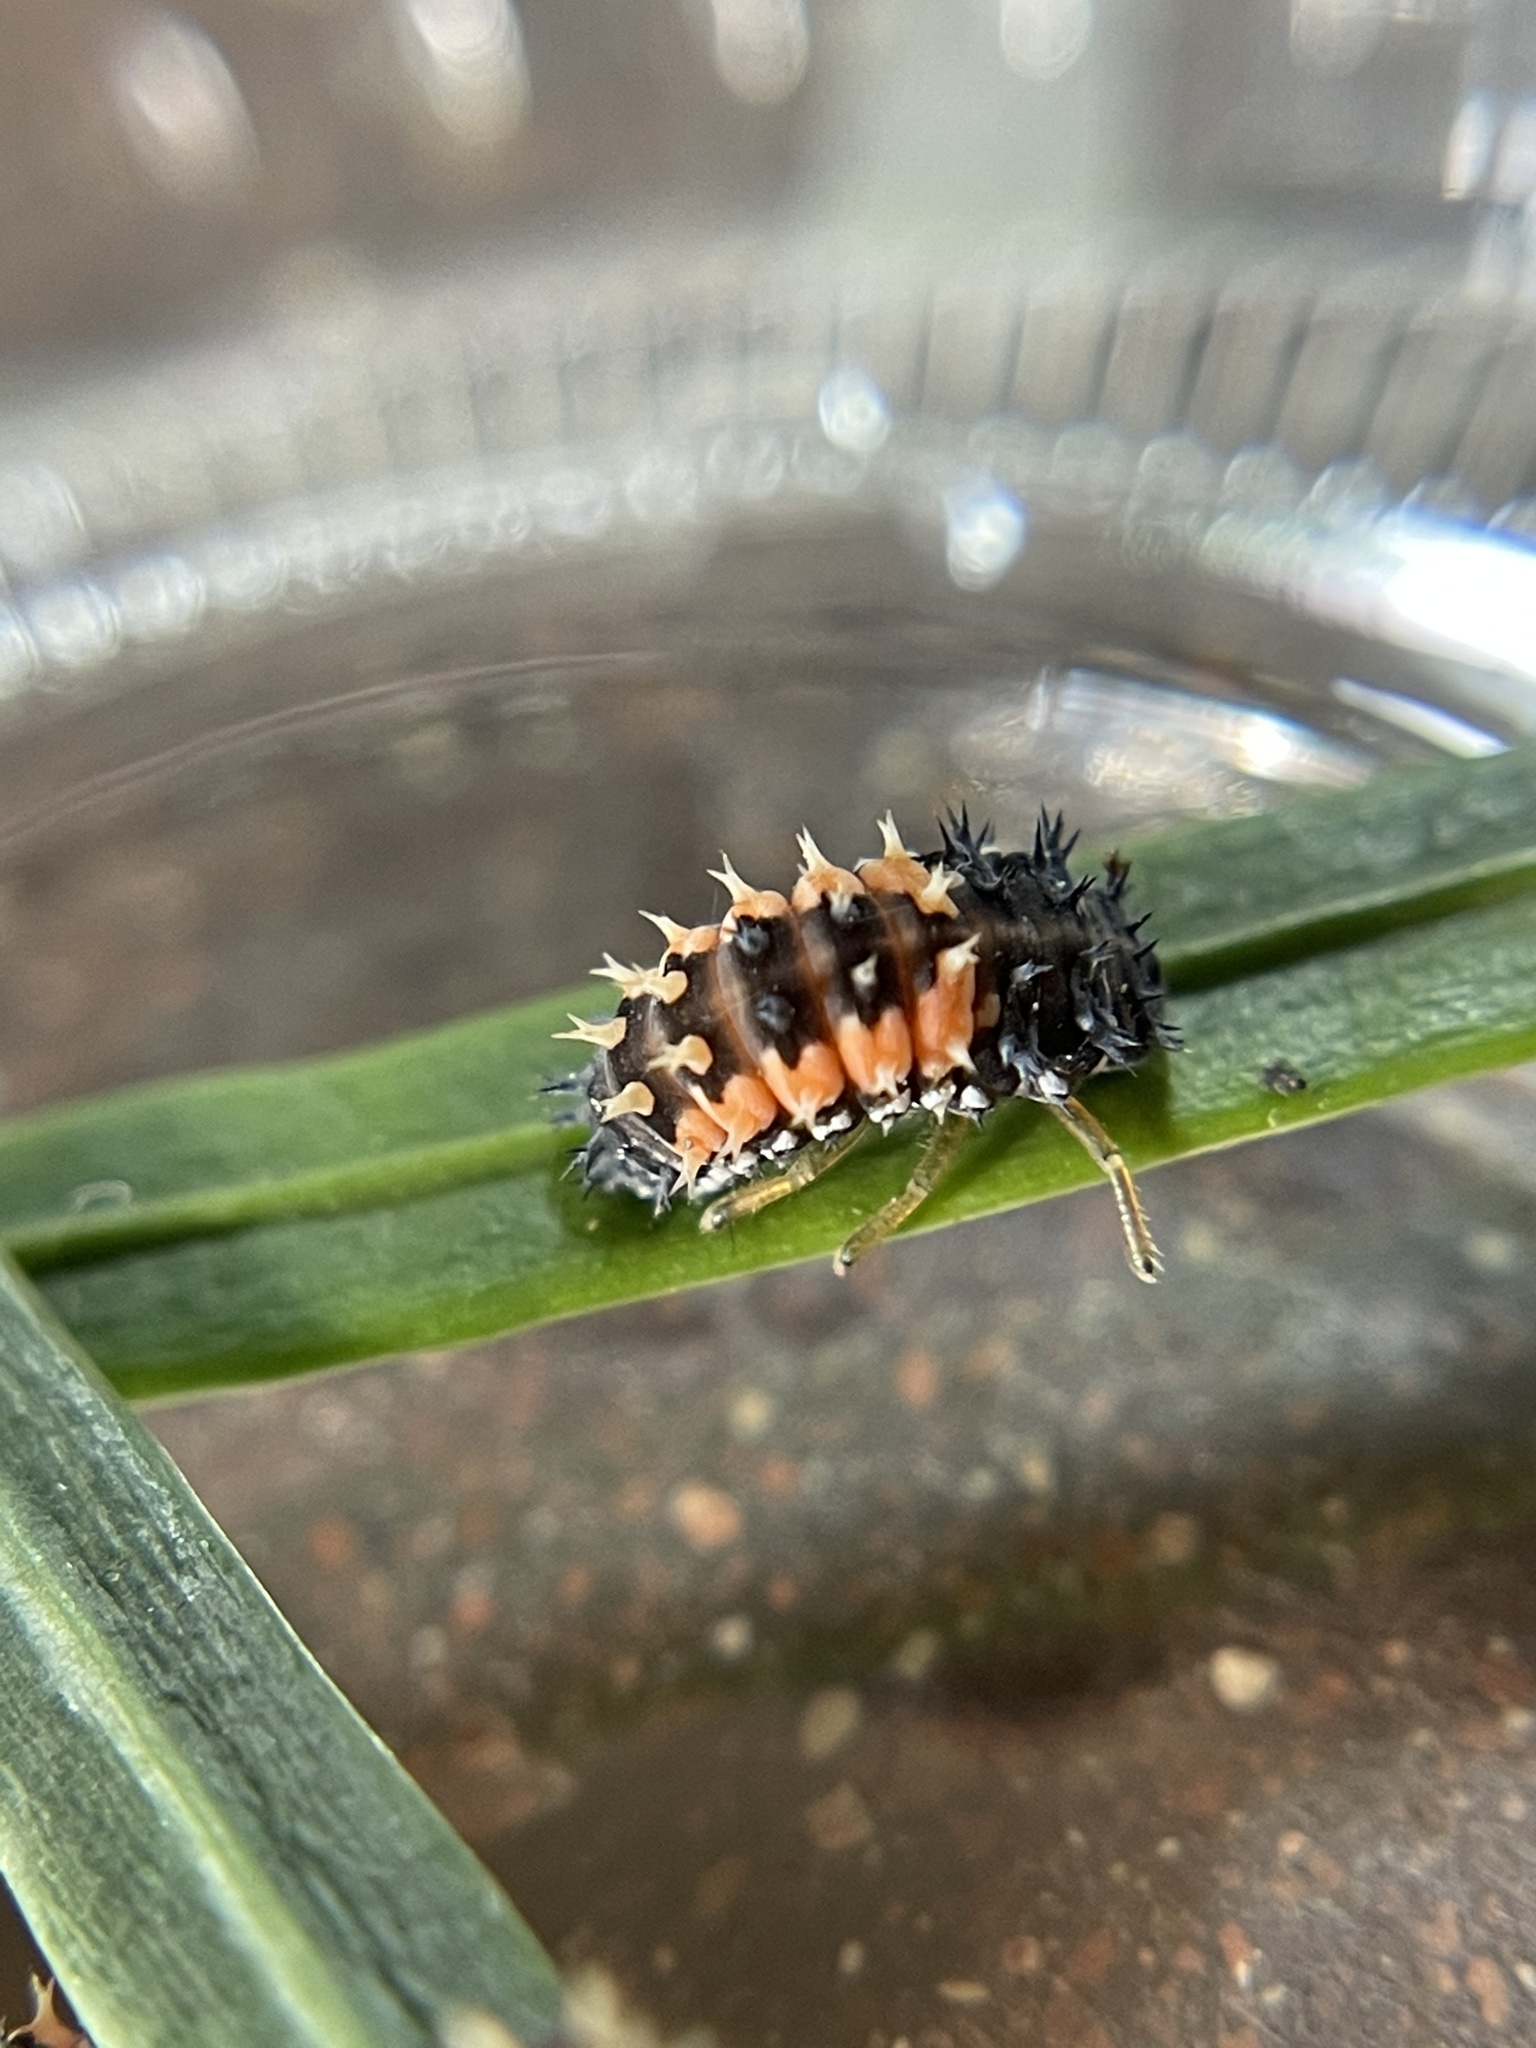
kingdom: Animalia
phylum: Arthropoda
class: Insecta
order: Coleoptera
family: Coccinellidae
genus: Harmonia
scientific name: Harmonia axyridis
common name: Harlequin ladybird
